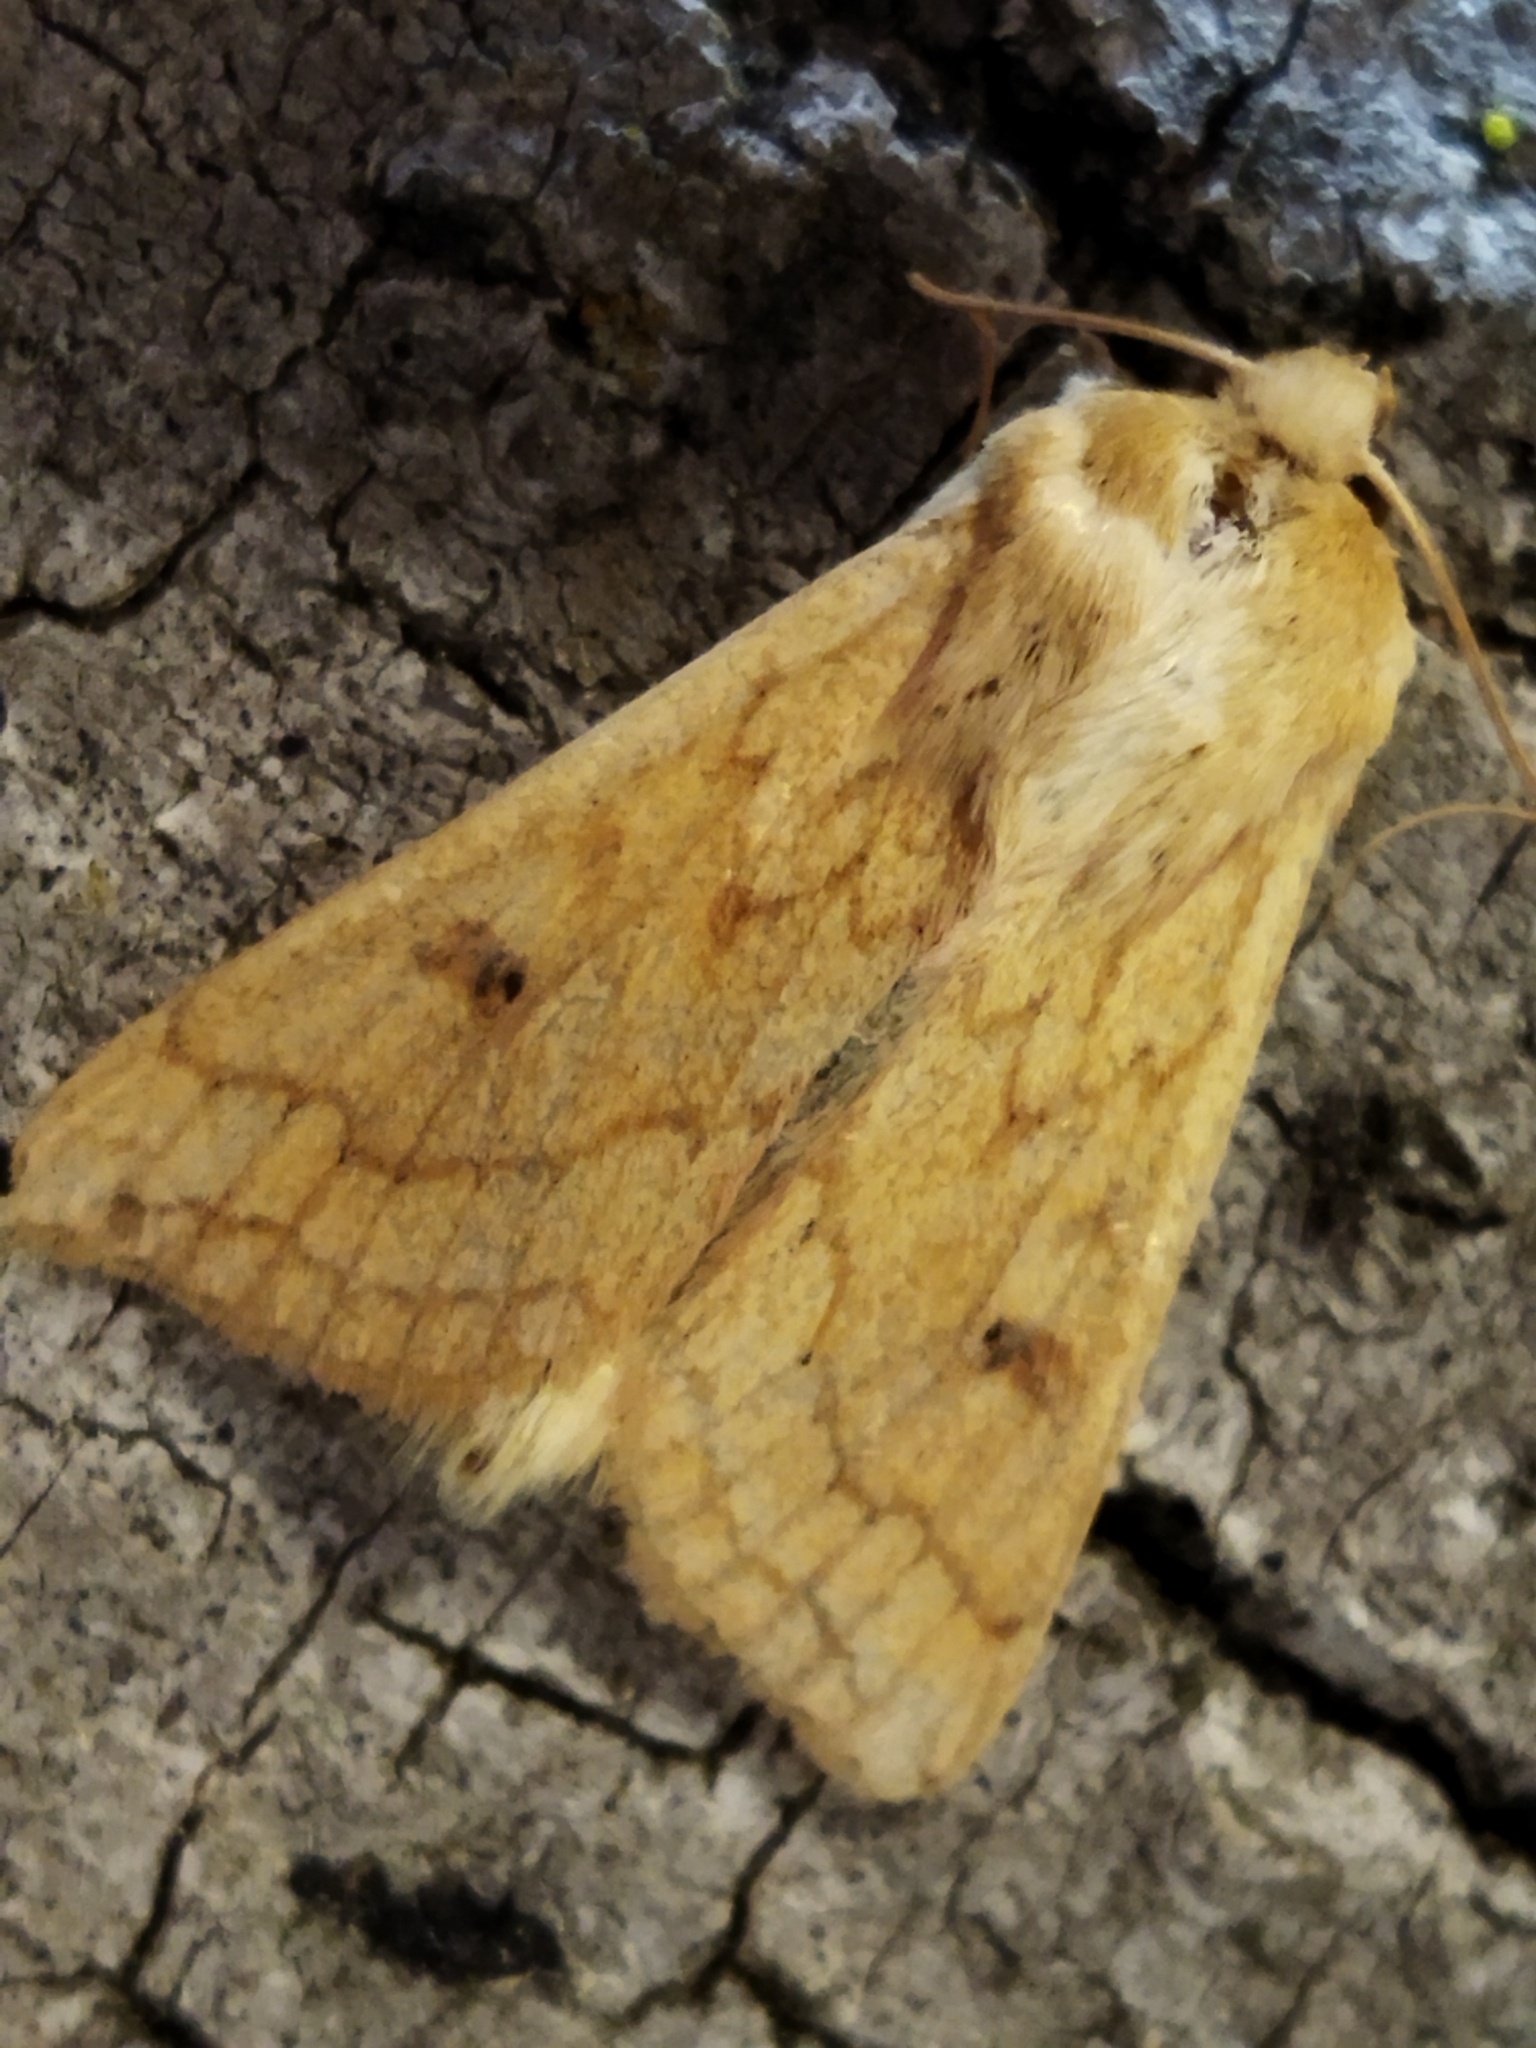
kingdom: Animalia
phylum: Arthropoda
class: Insecta
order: Lepidoptera
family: Noctuidae
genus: Mythimna
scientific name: Mythimna vitellina
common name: Delicate
